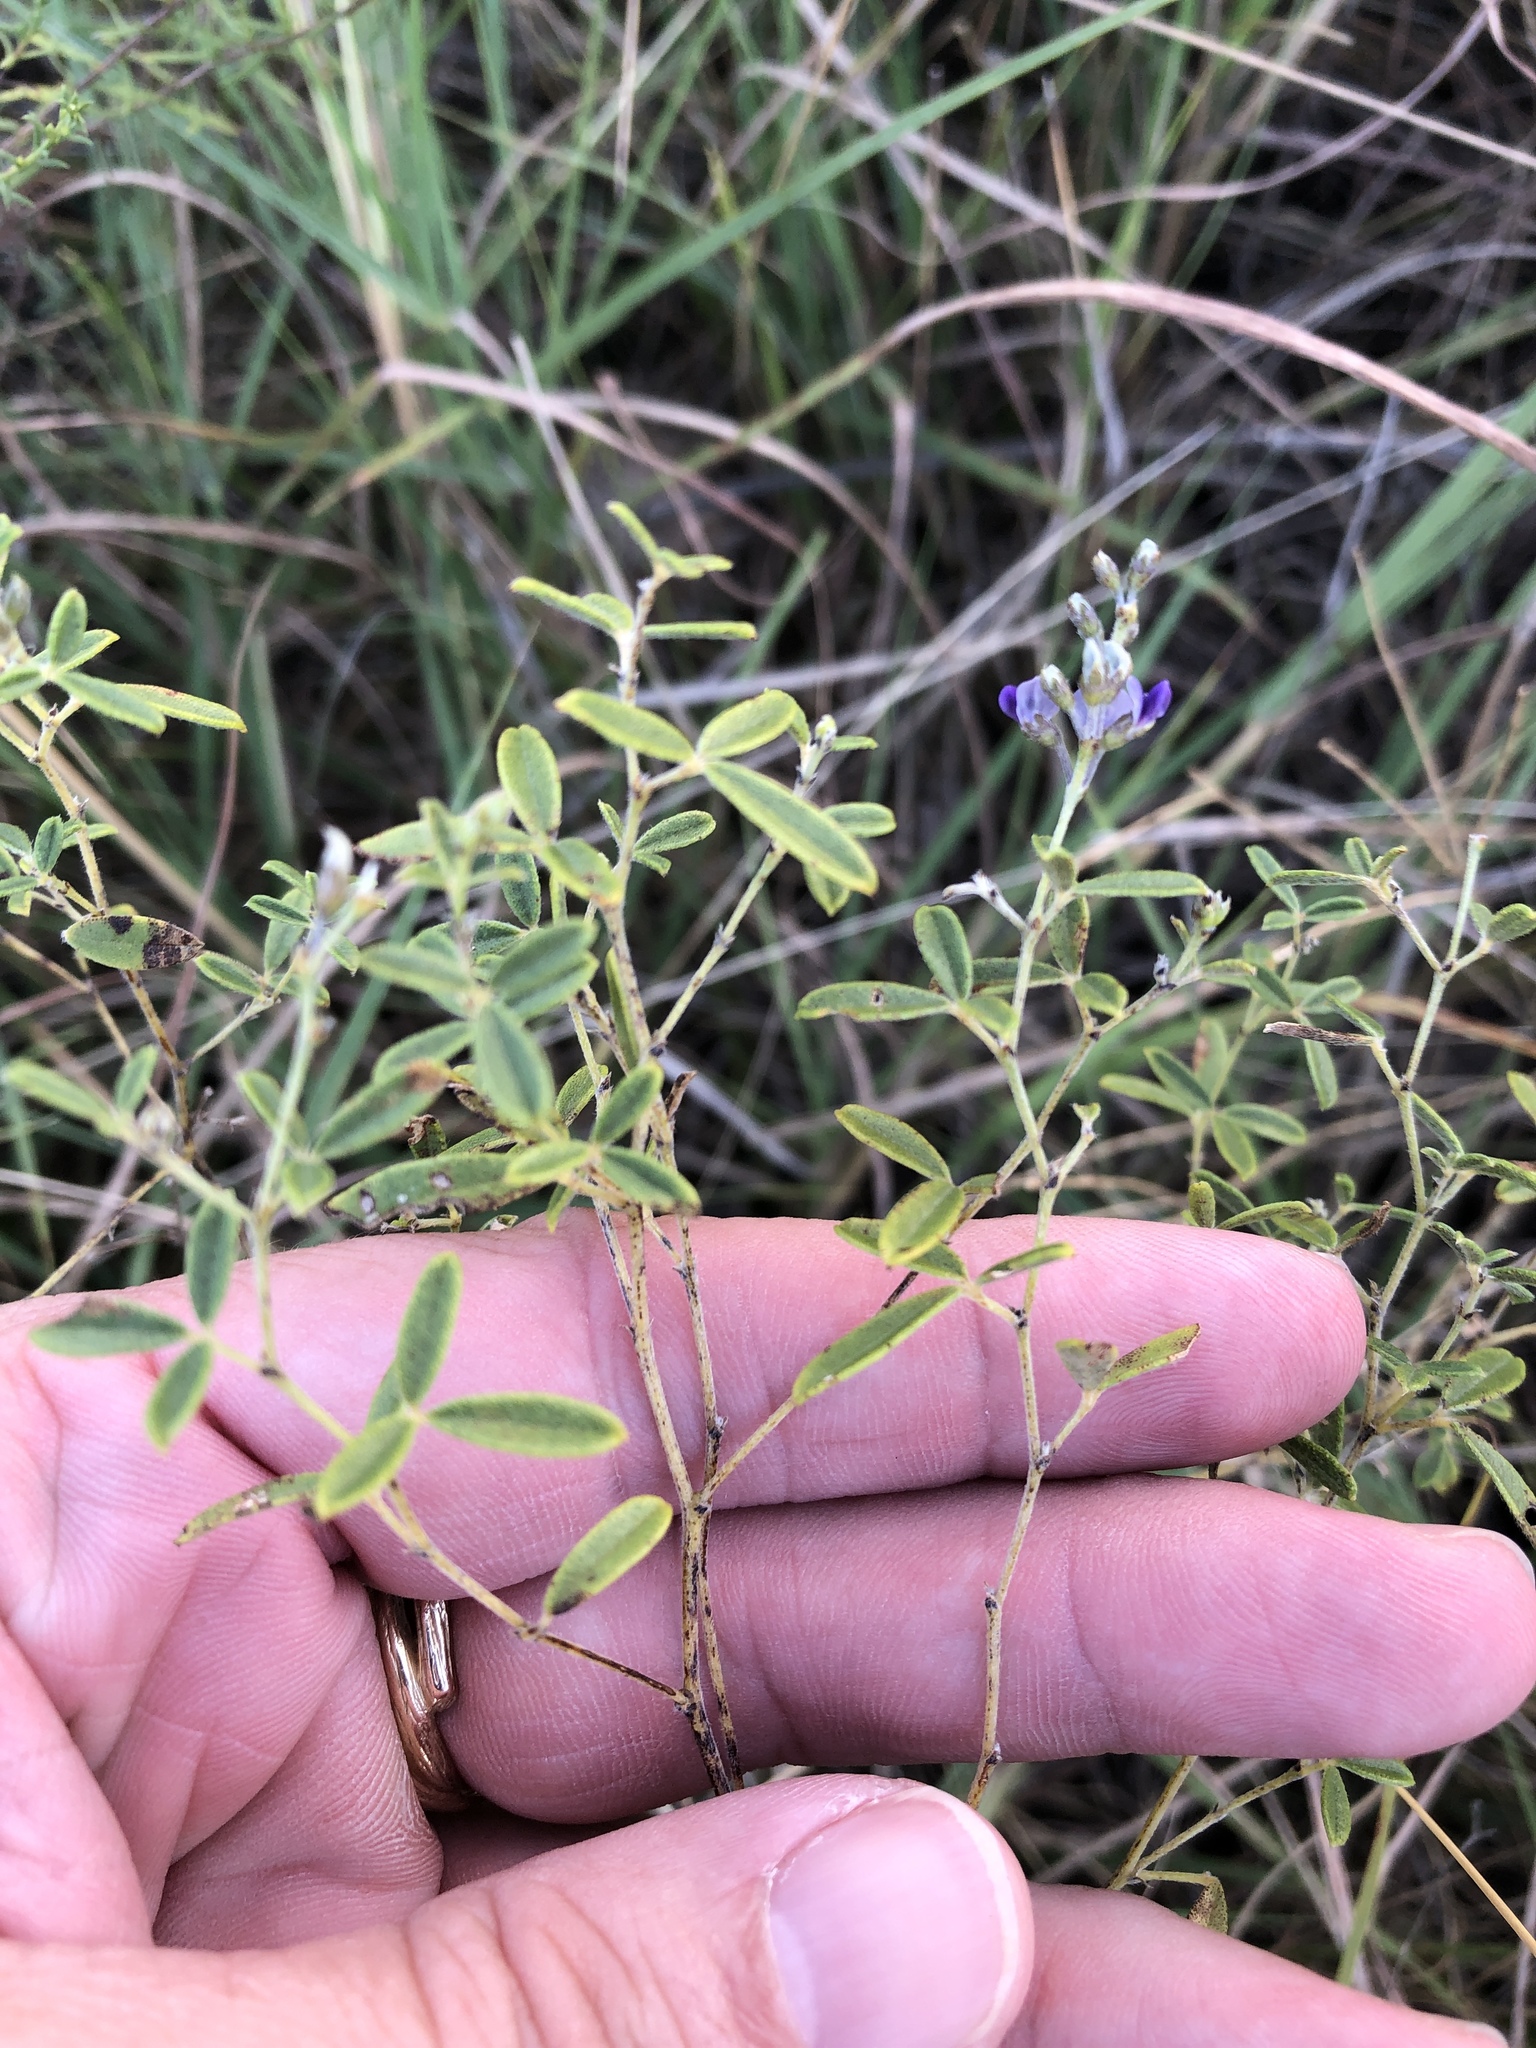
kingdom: Plantae
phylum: Tracheophyta
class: Magnoliopsida
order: Fabales
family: Fabaceae
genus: Pediomelum
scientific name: Pediomelum tenuiflorum
